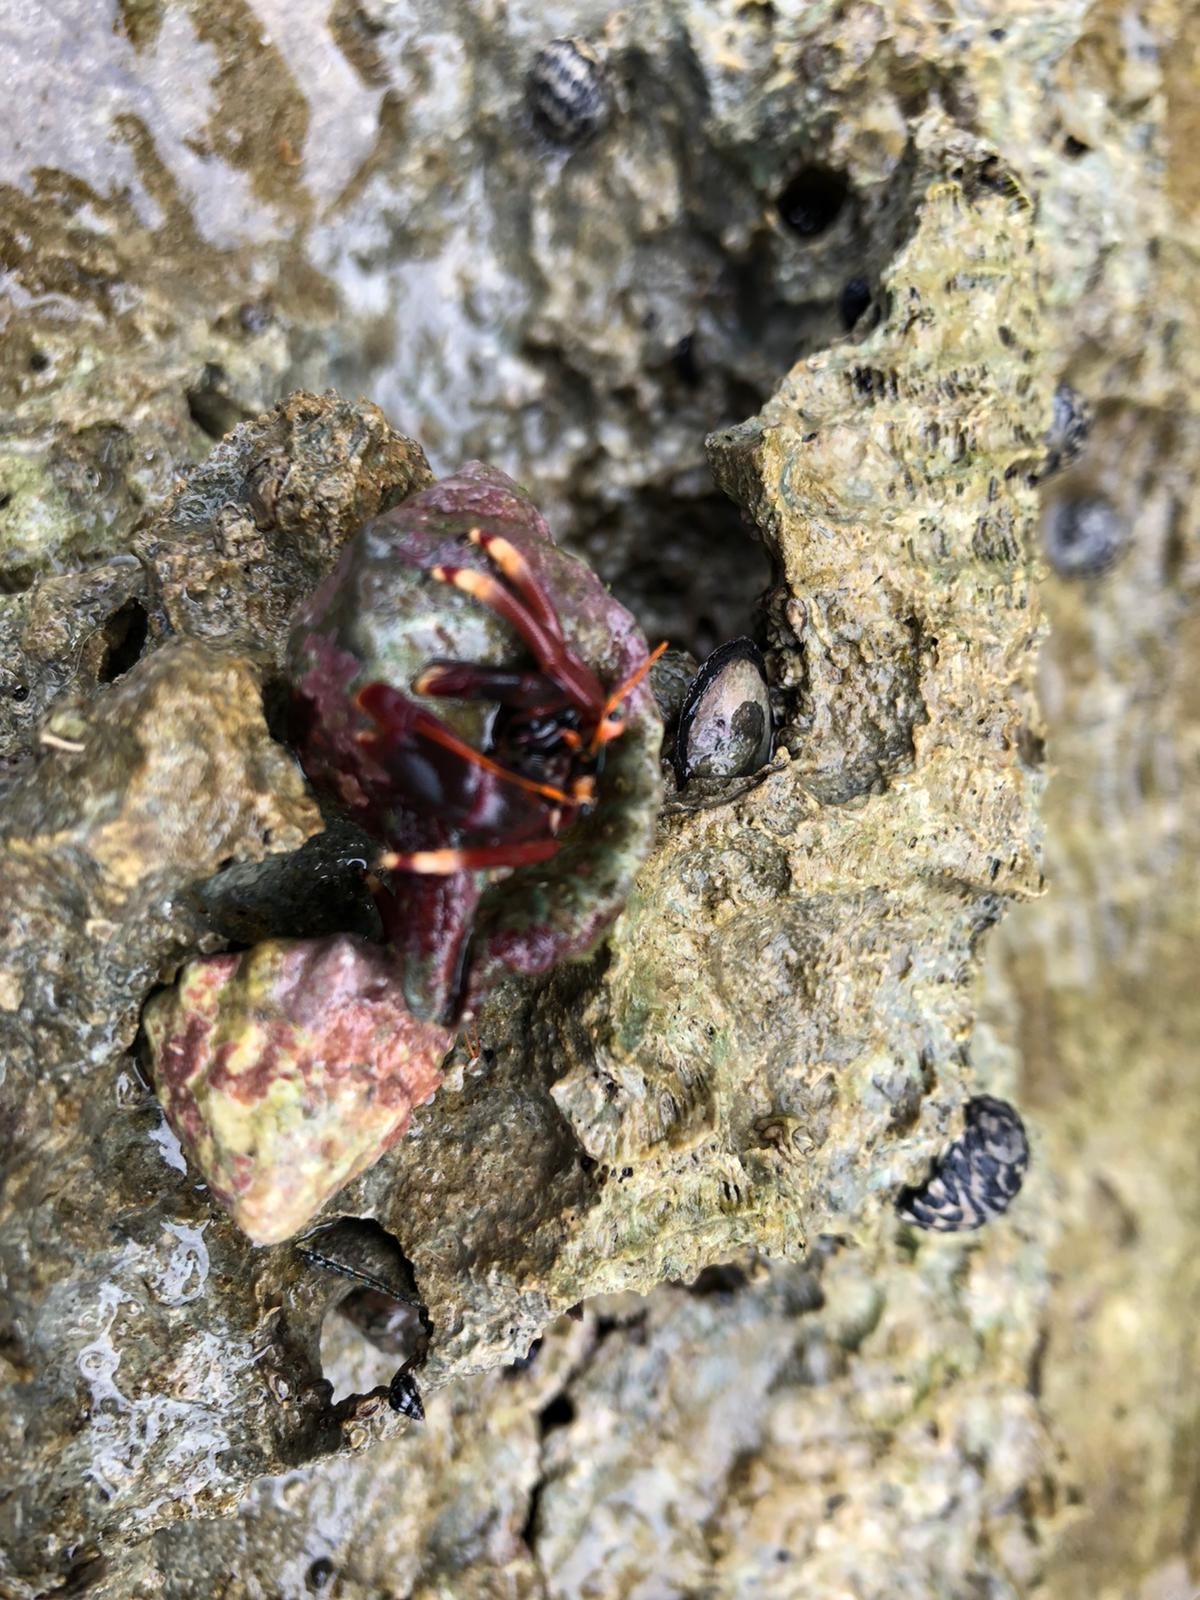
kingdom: Animalia
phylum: Arthropoda
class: Malacostraca
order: Decapoda
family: Diogenidae
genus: Calcinus
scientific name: Calcinus tibicen
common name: Orangeclaw hermit
